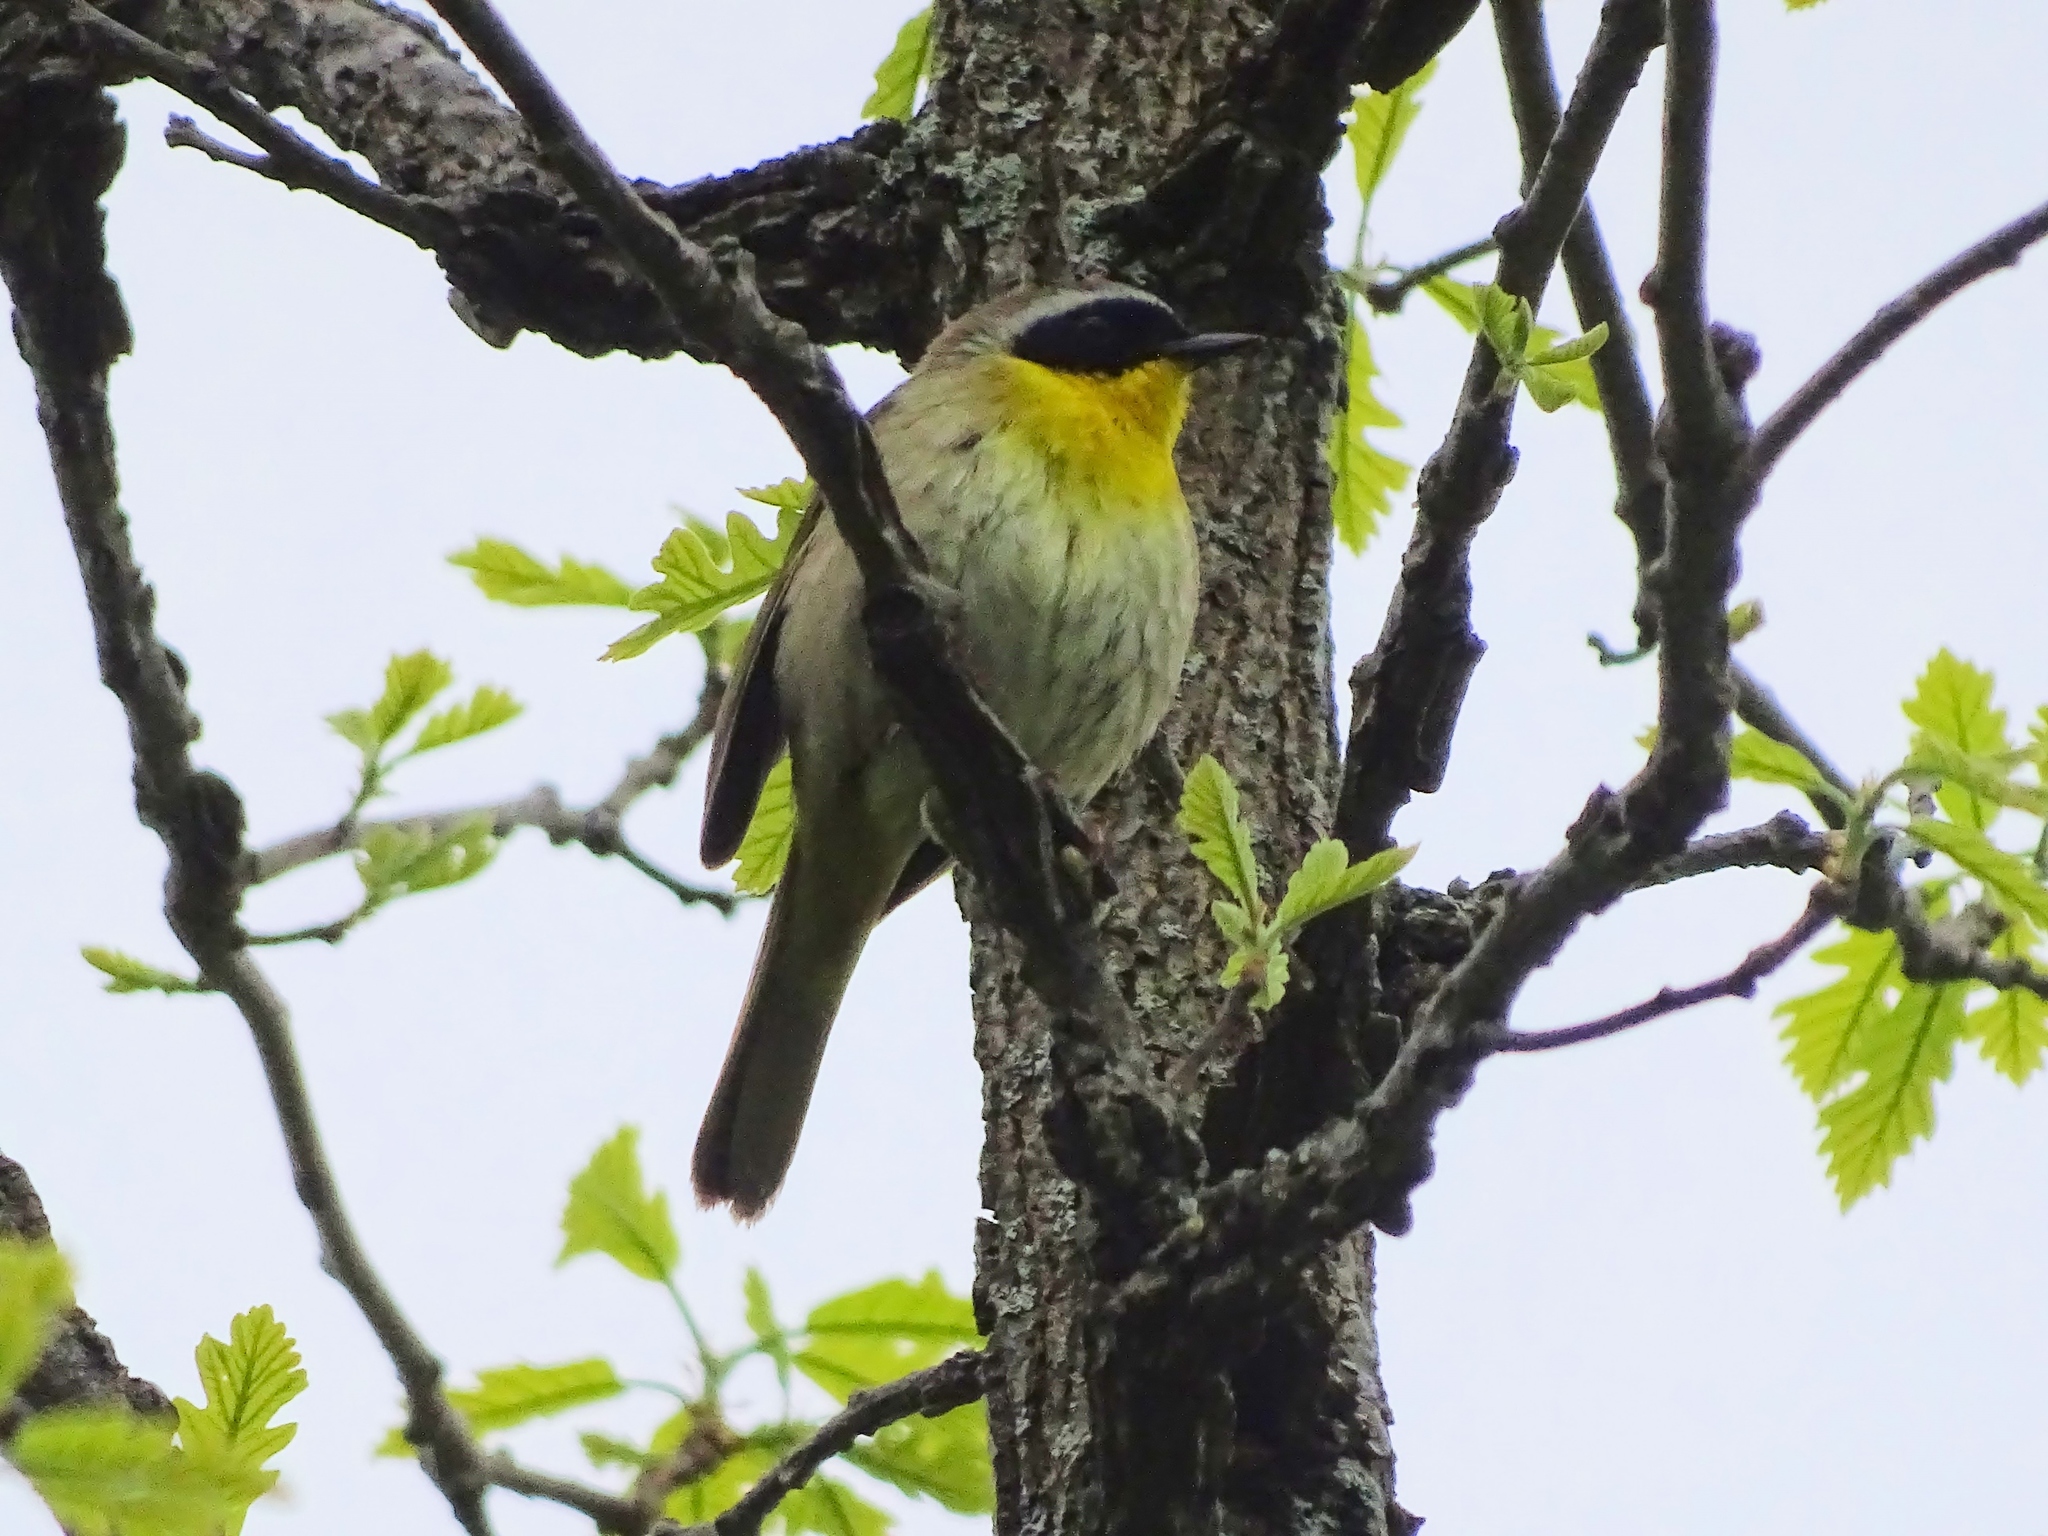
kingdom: Animalia
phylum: Chordata
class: Aves
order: Passeriformes
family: Parulidae
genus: Geothlypis
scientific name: Geothlypis trichas
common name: Common yellowthroat
